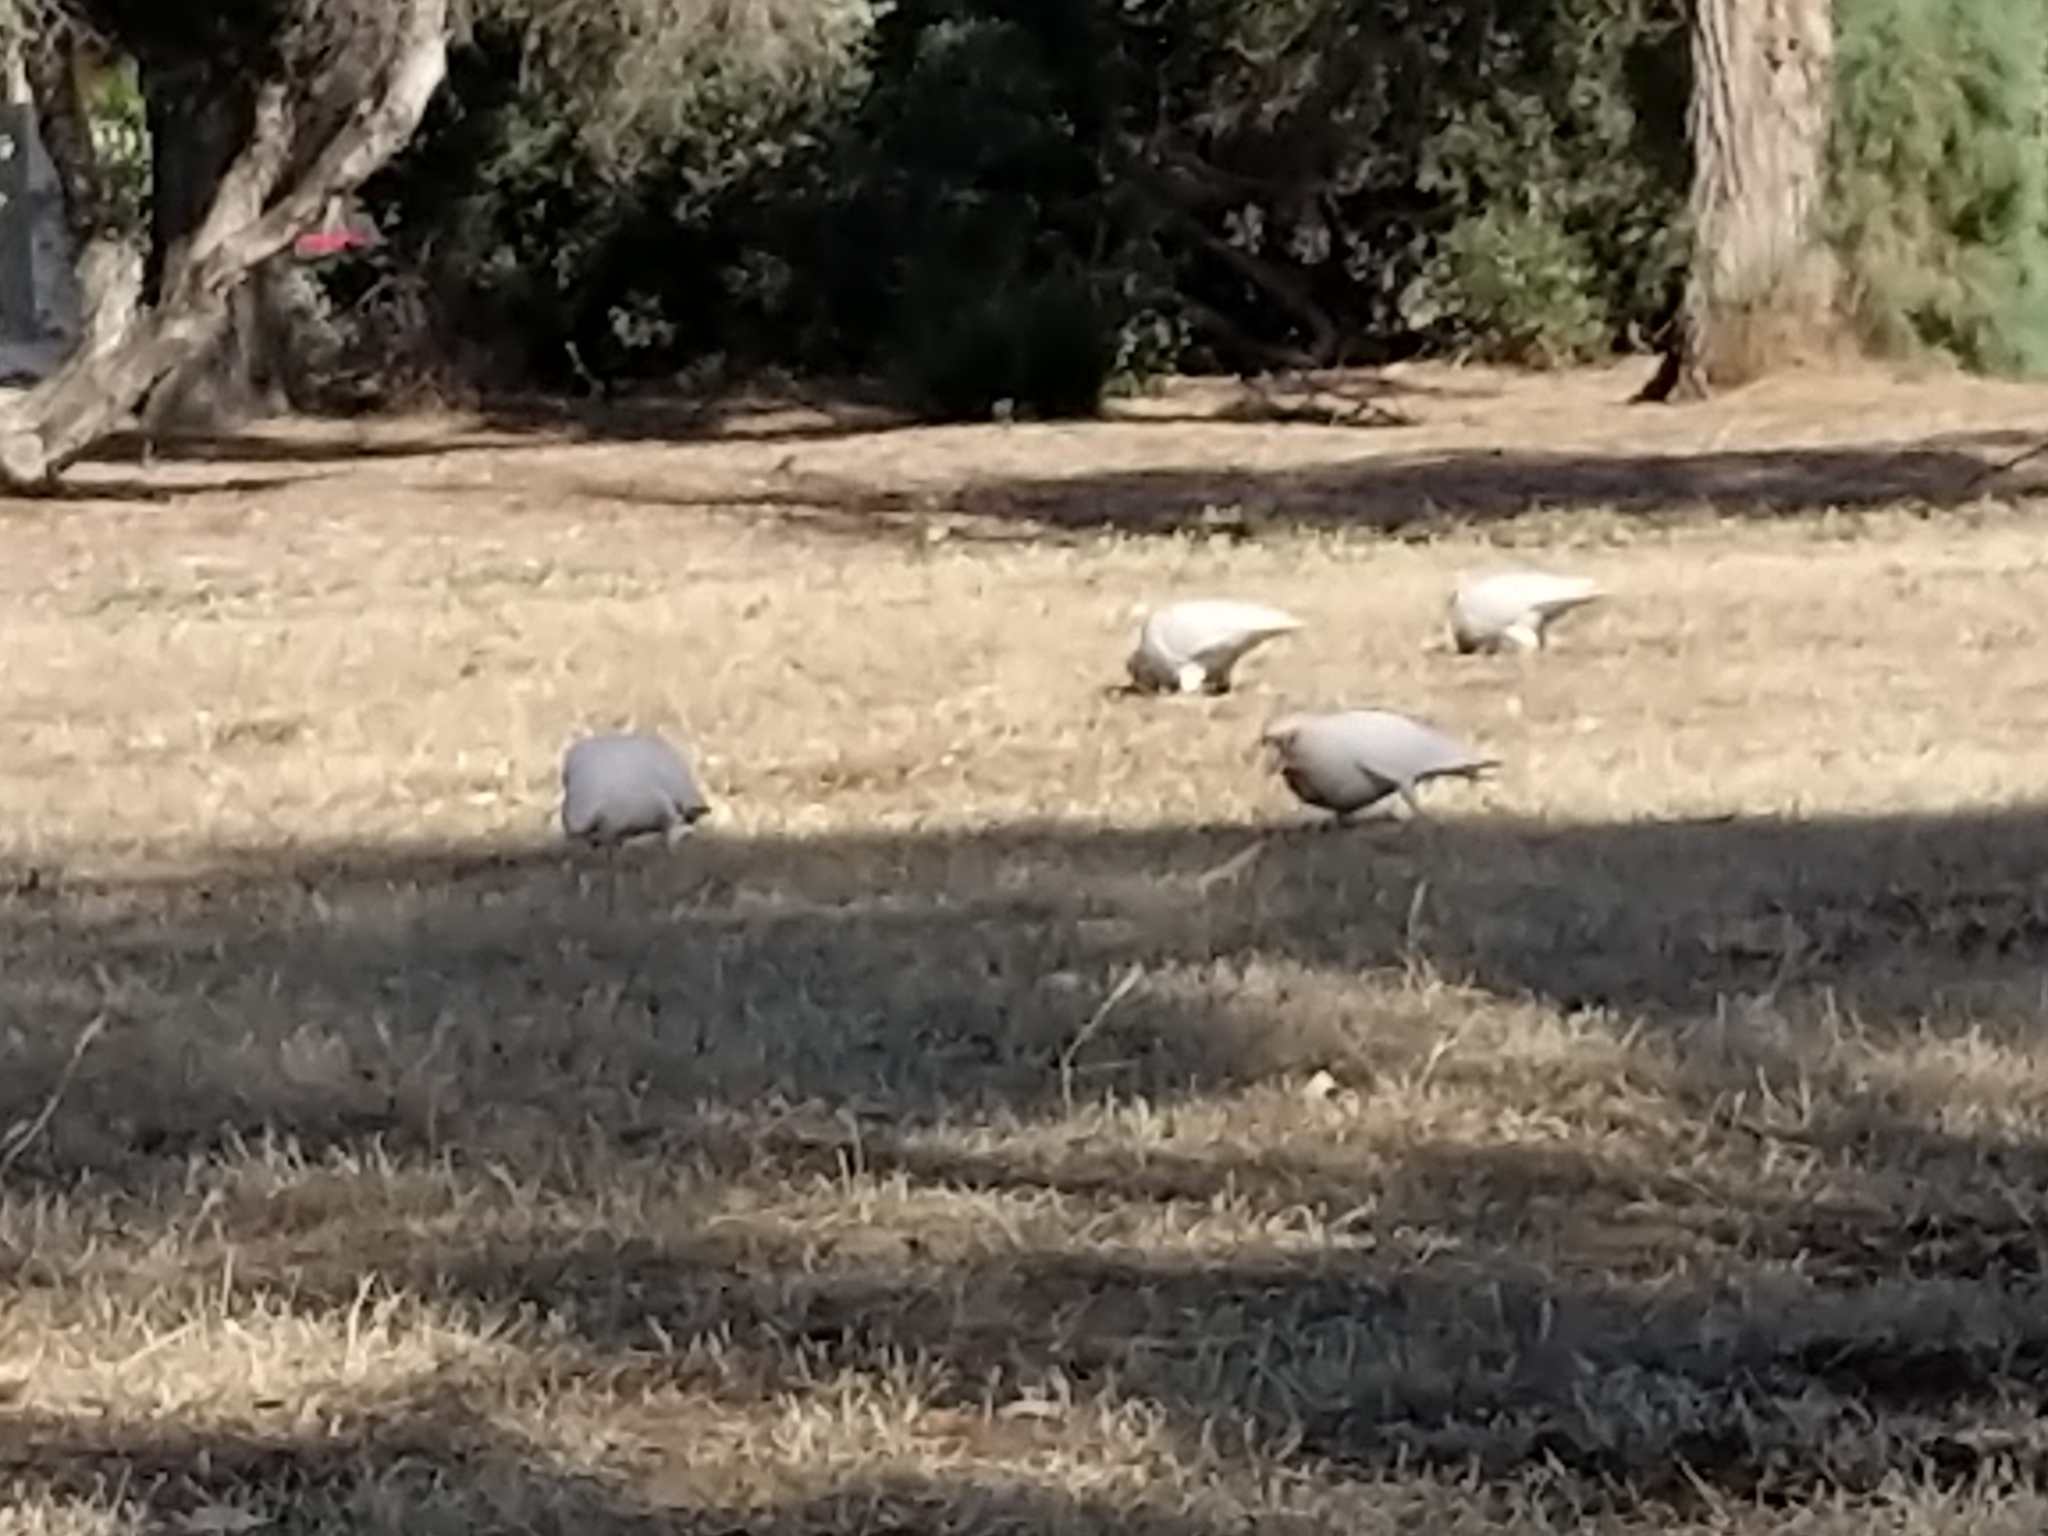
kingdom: Animalia
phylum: Chordata
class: Aves
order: Psittaciformes
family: Psittacidae
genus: Cacatua
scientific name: Cacatua sanguinea
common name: Little corella
